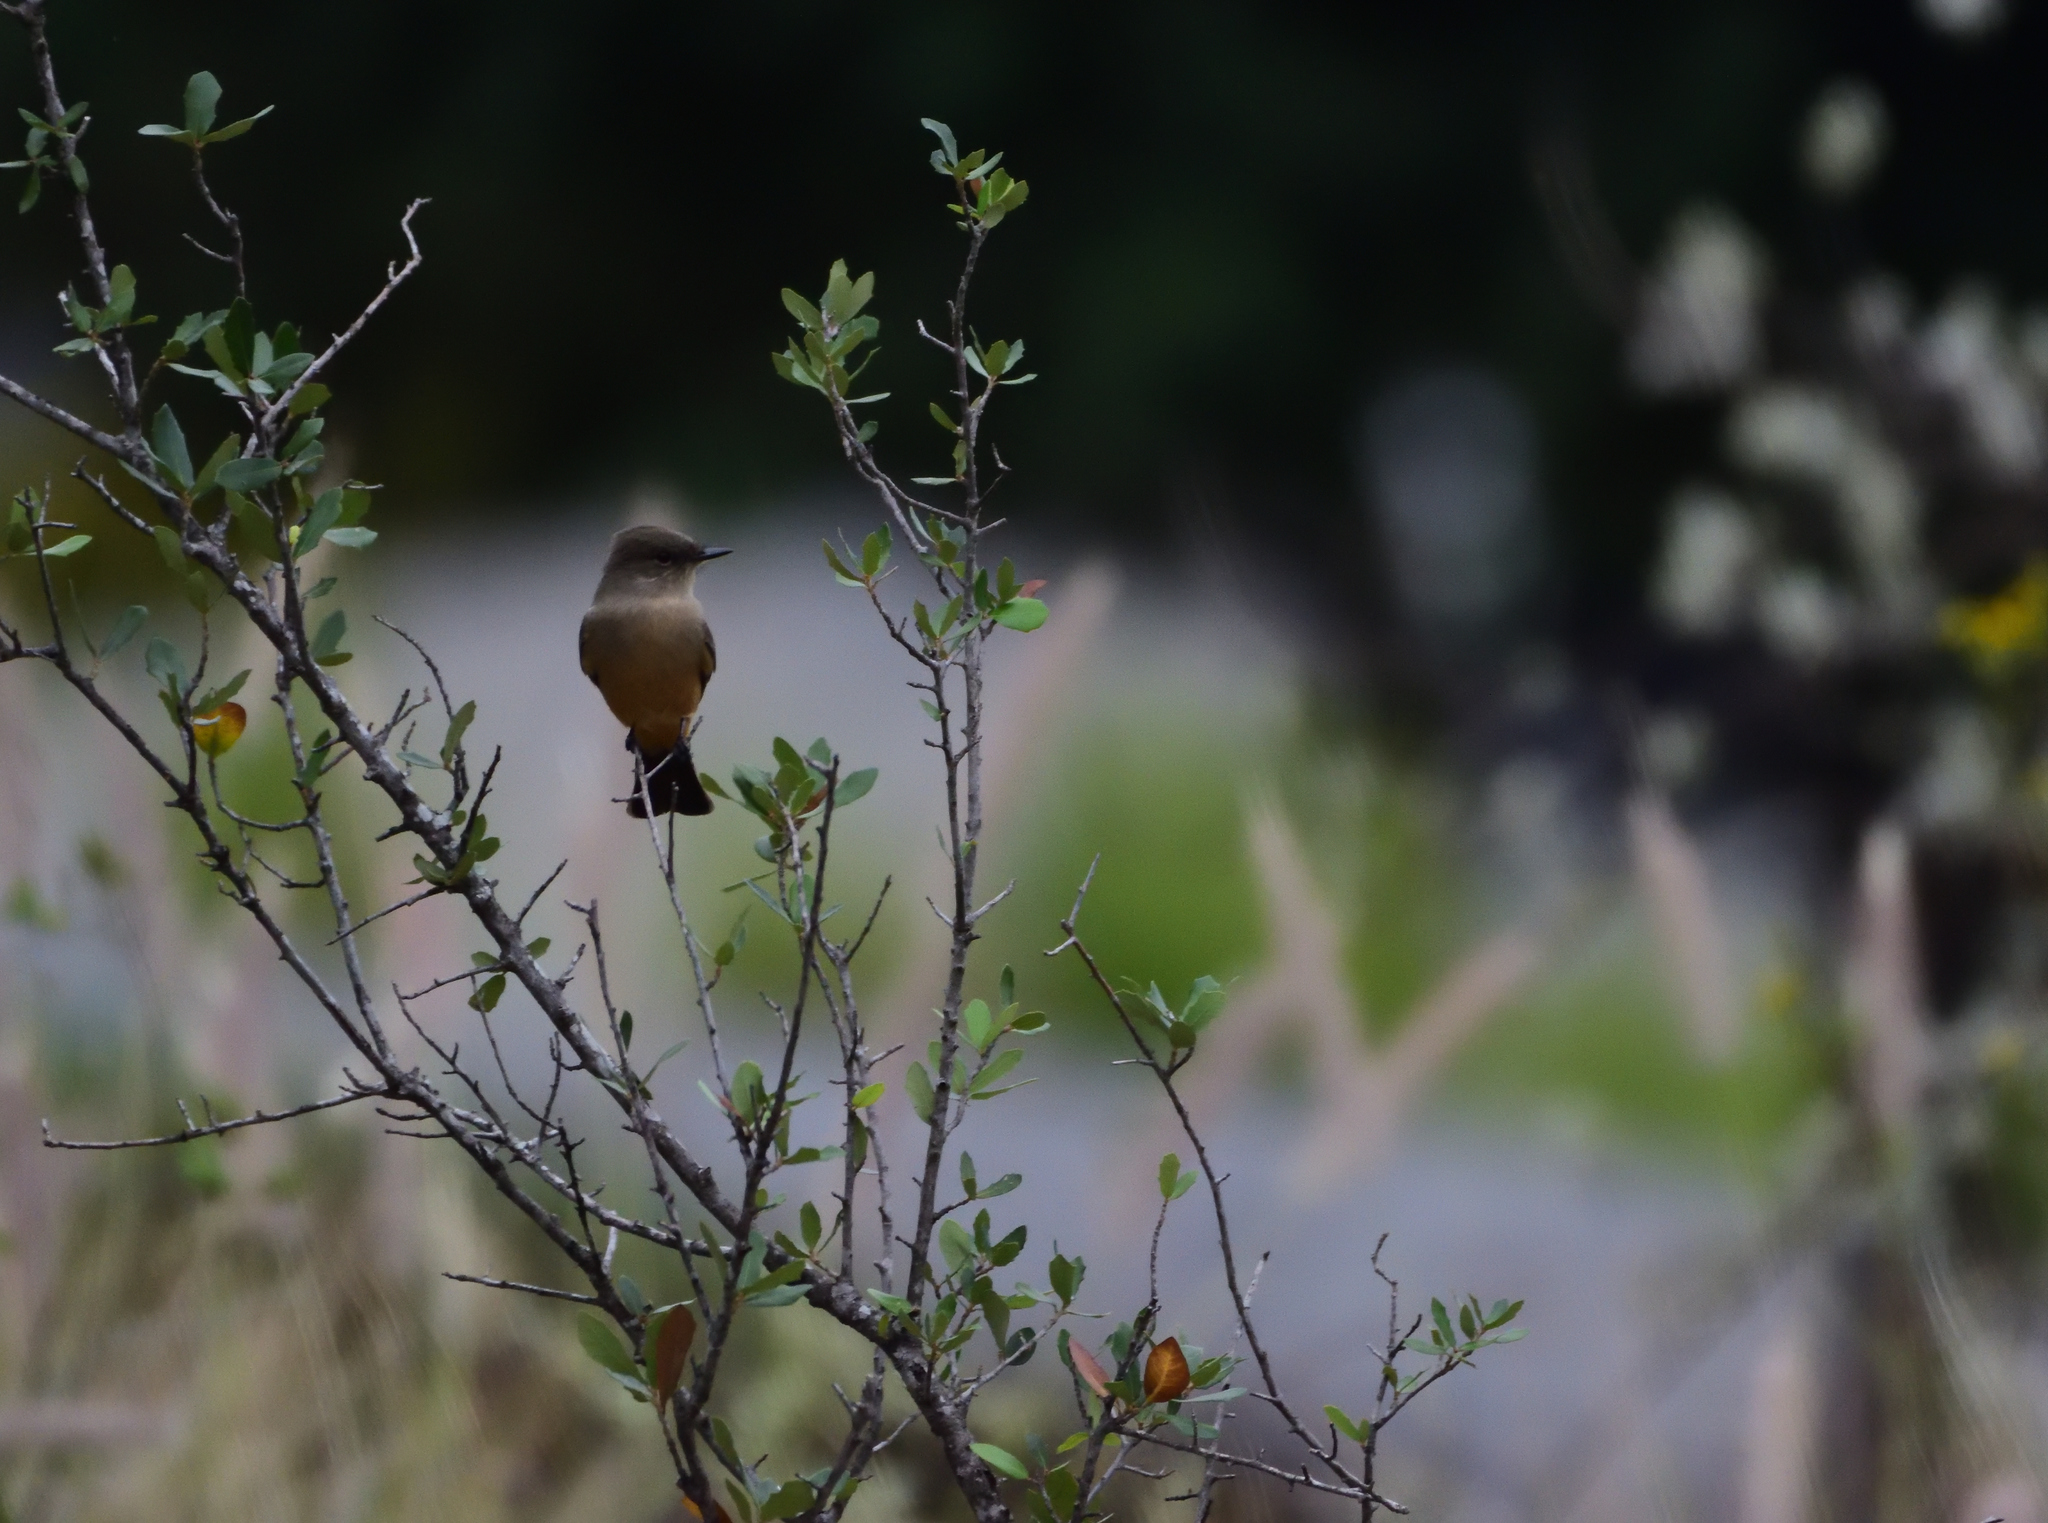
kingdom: Animalia
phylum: Chordata
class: Aves
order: Passeriformes
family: Tyrannidae
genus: Sayornis
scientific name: Sayornis saya
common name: Say's phoebe
